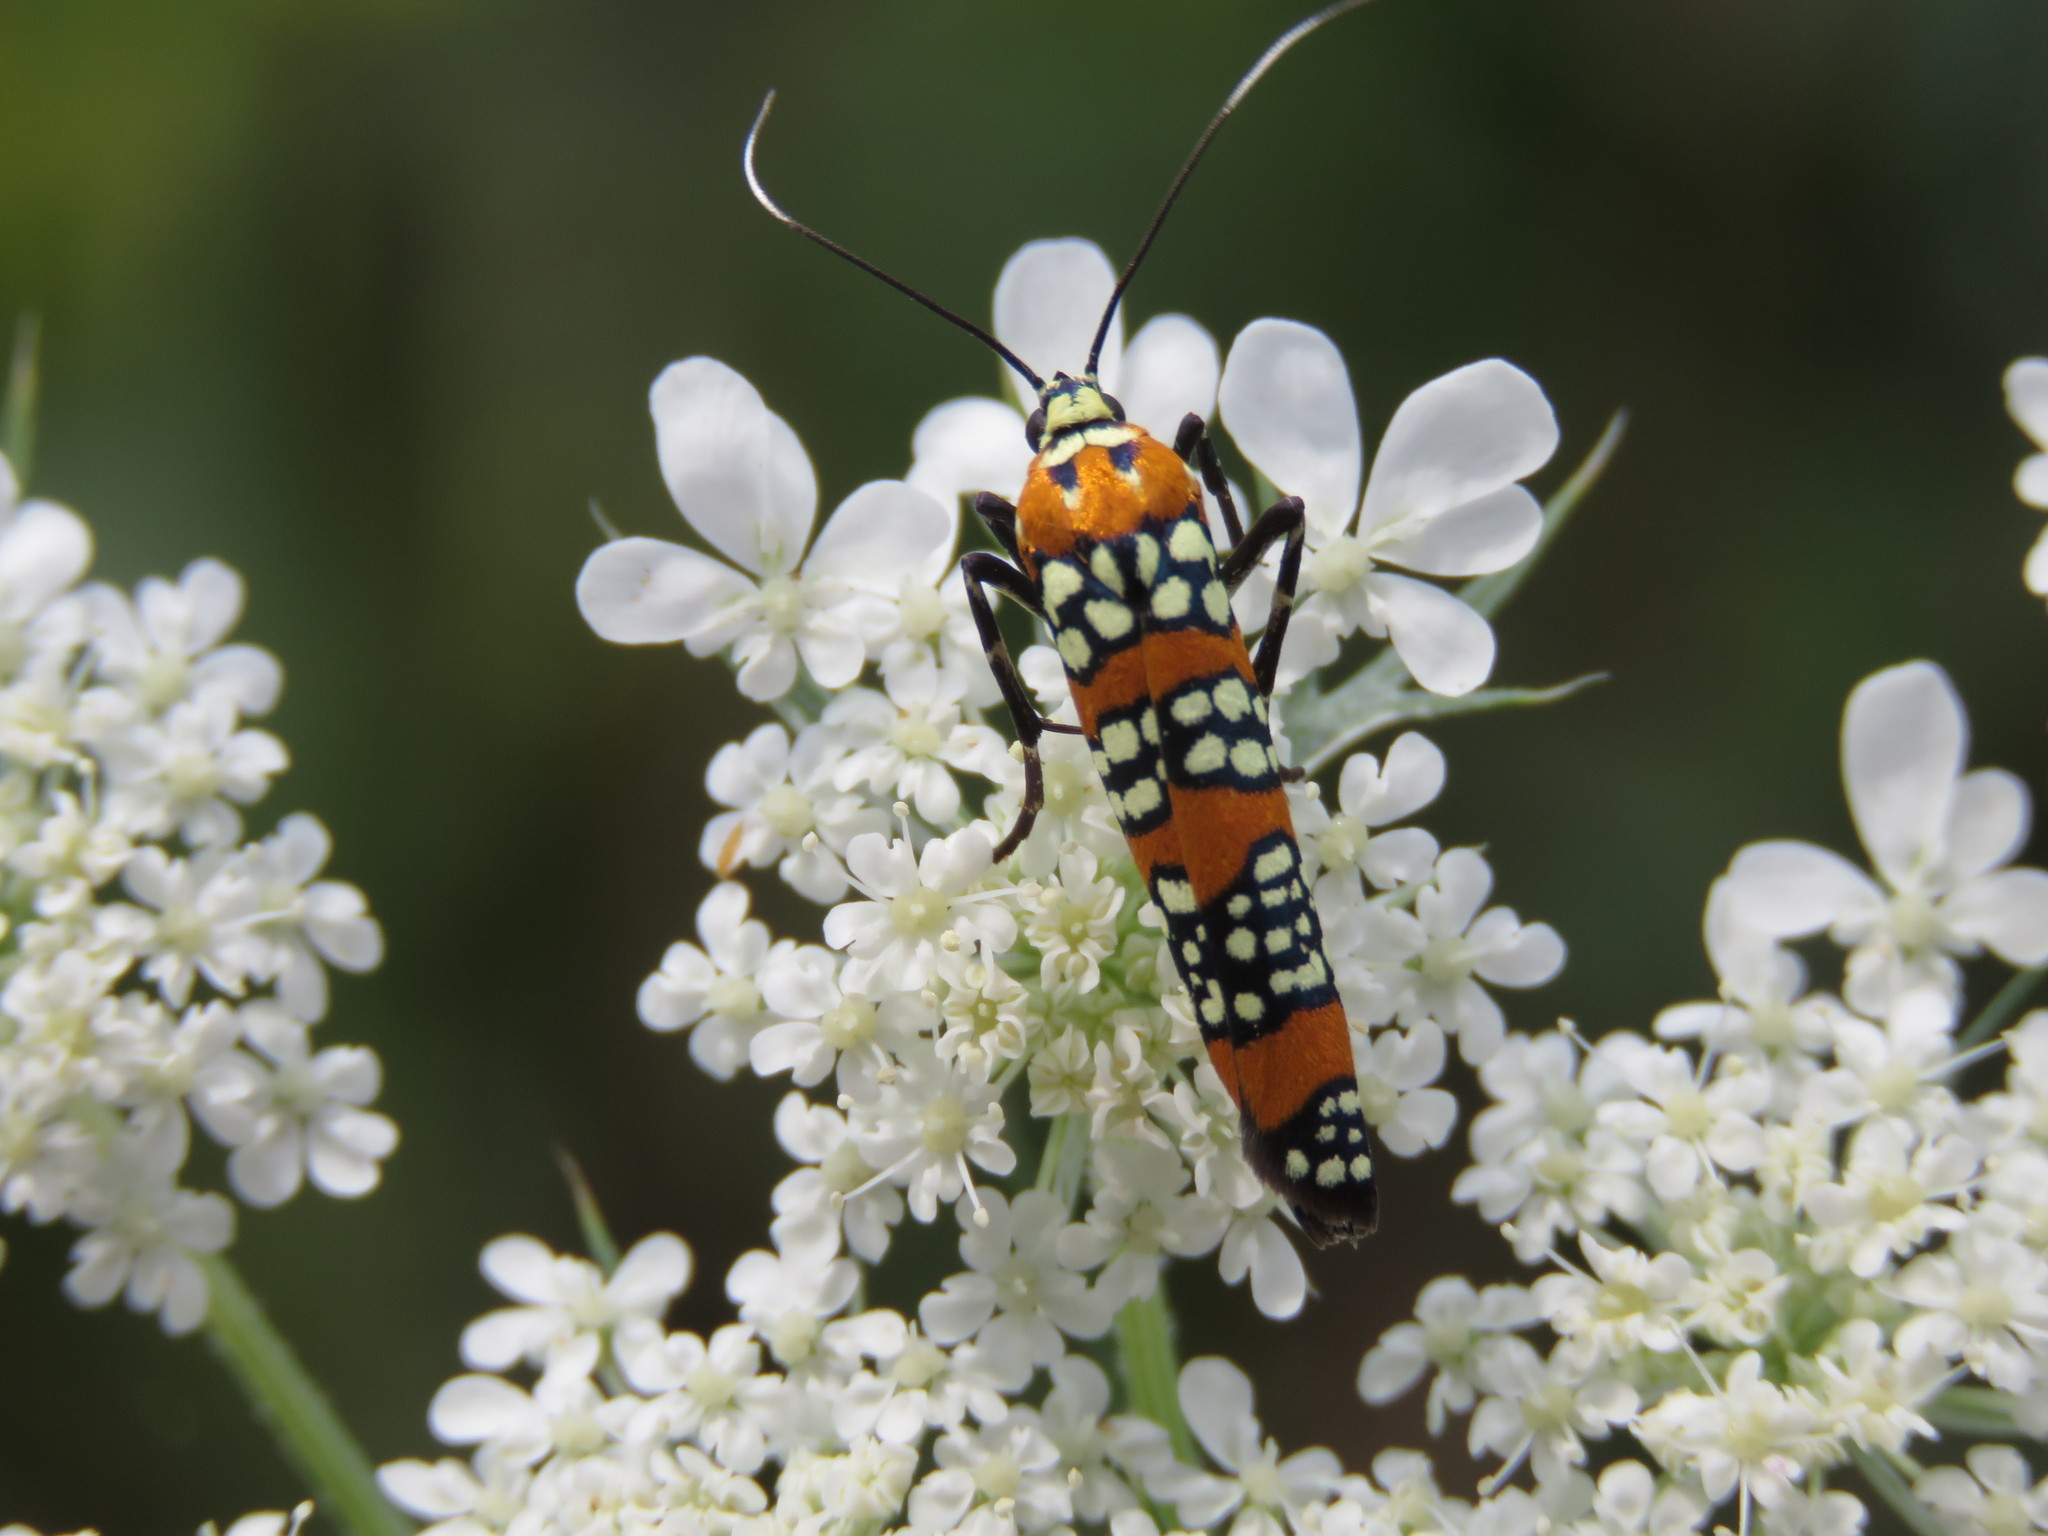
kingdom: Animalia
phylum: Arthropoda
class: Insecta
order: Lepidoptera
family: Attevidae
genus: Atteva
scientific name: Atteva punctella
